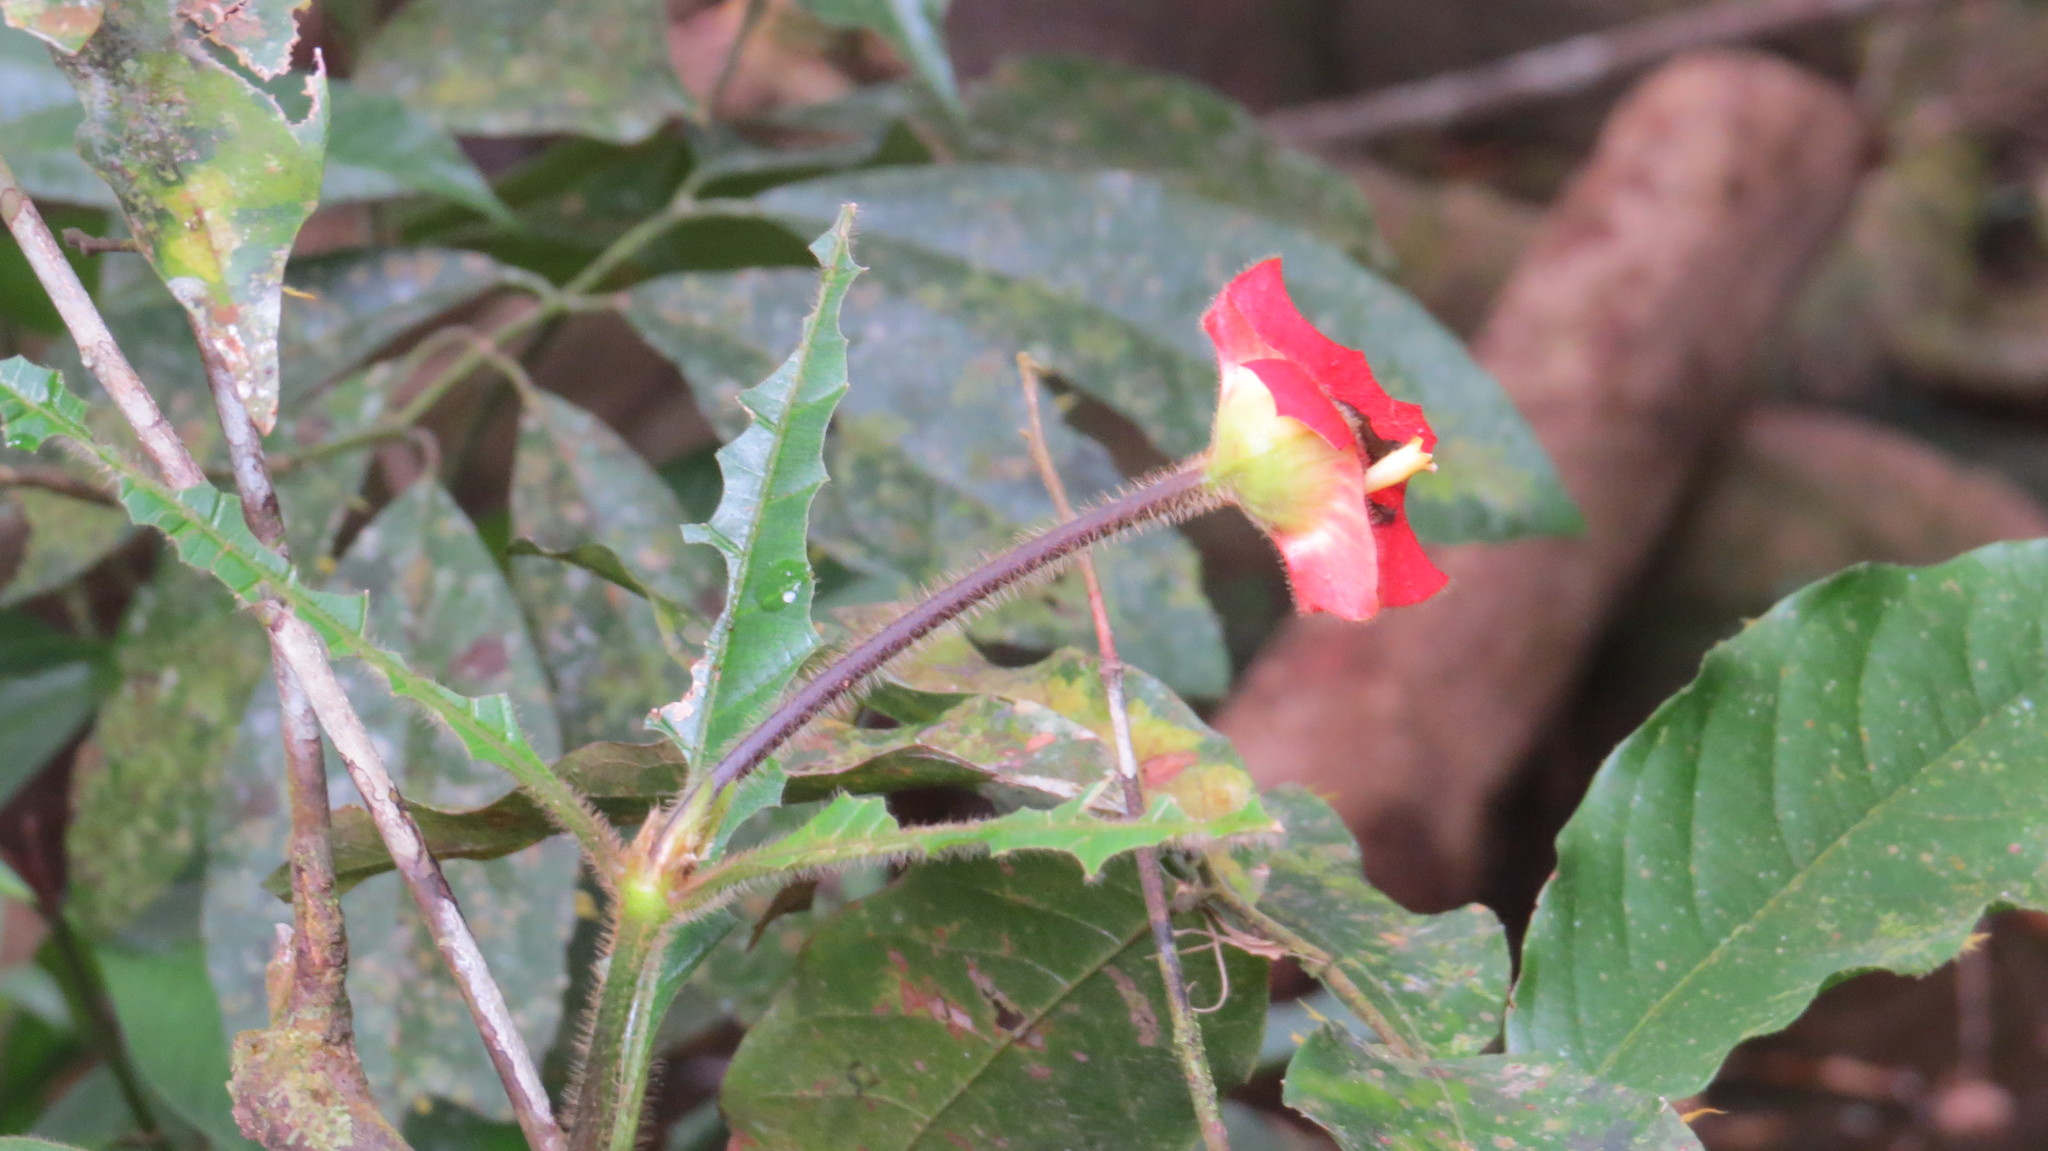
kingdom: Plantae
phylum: Tracheophyta
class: Magnoliopsida
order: Gentianales
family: Rubiaceae
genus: Palicourea
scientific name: Palicourea tomentosa
